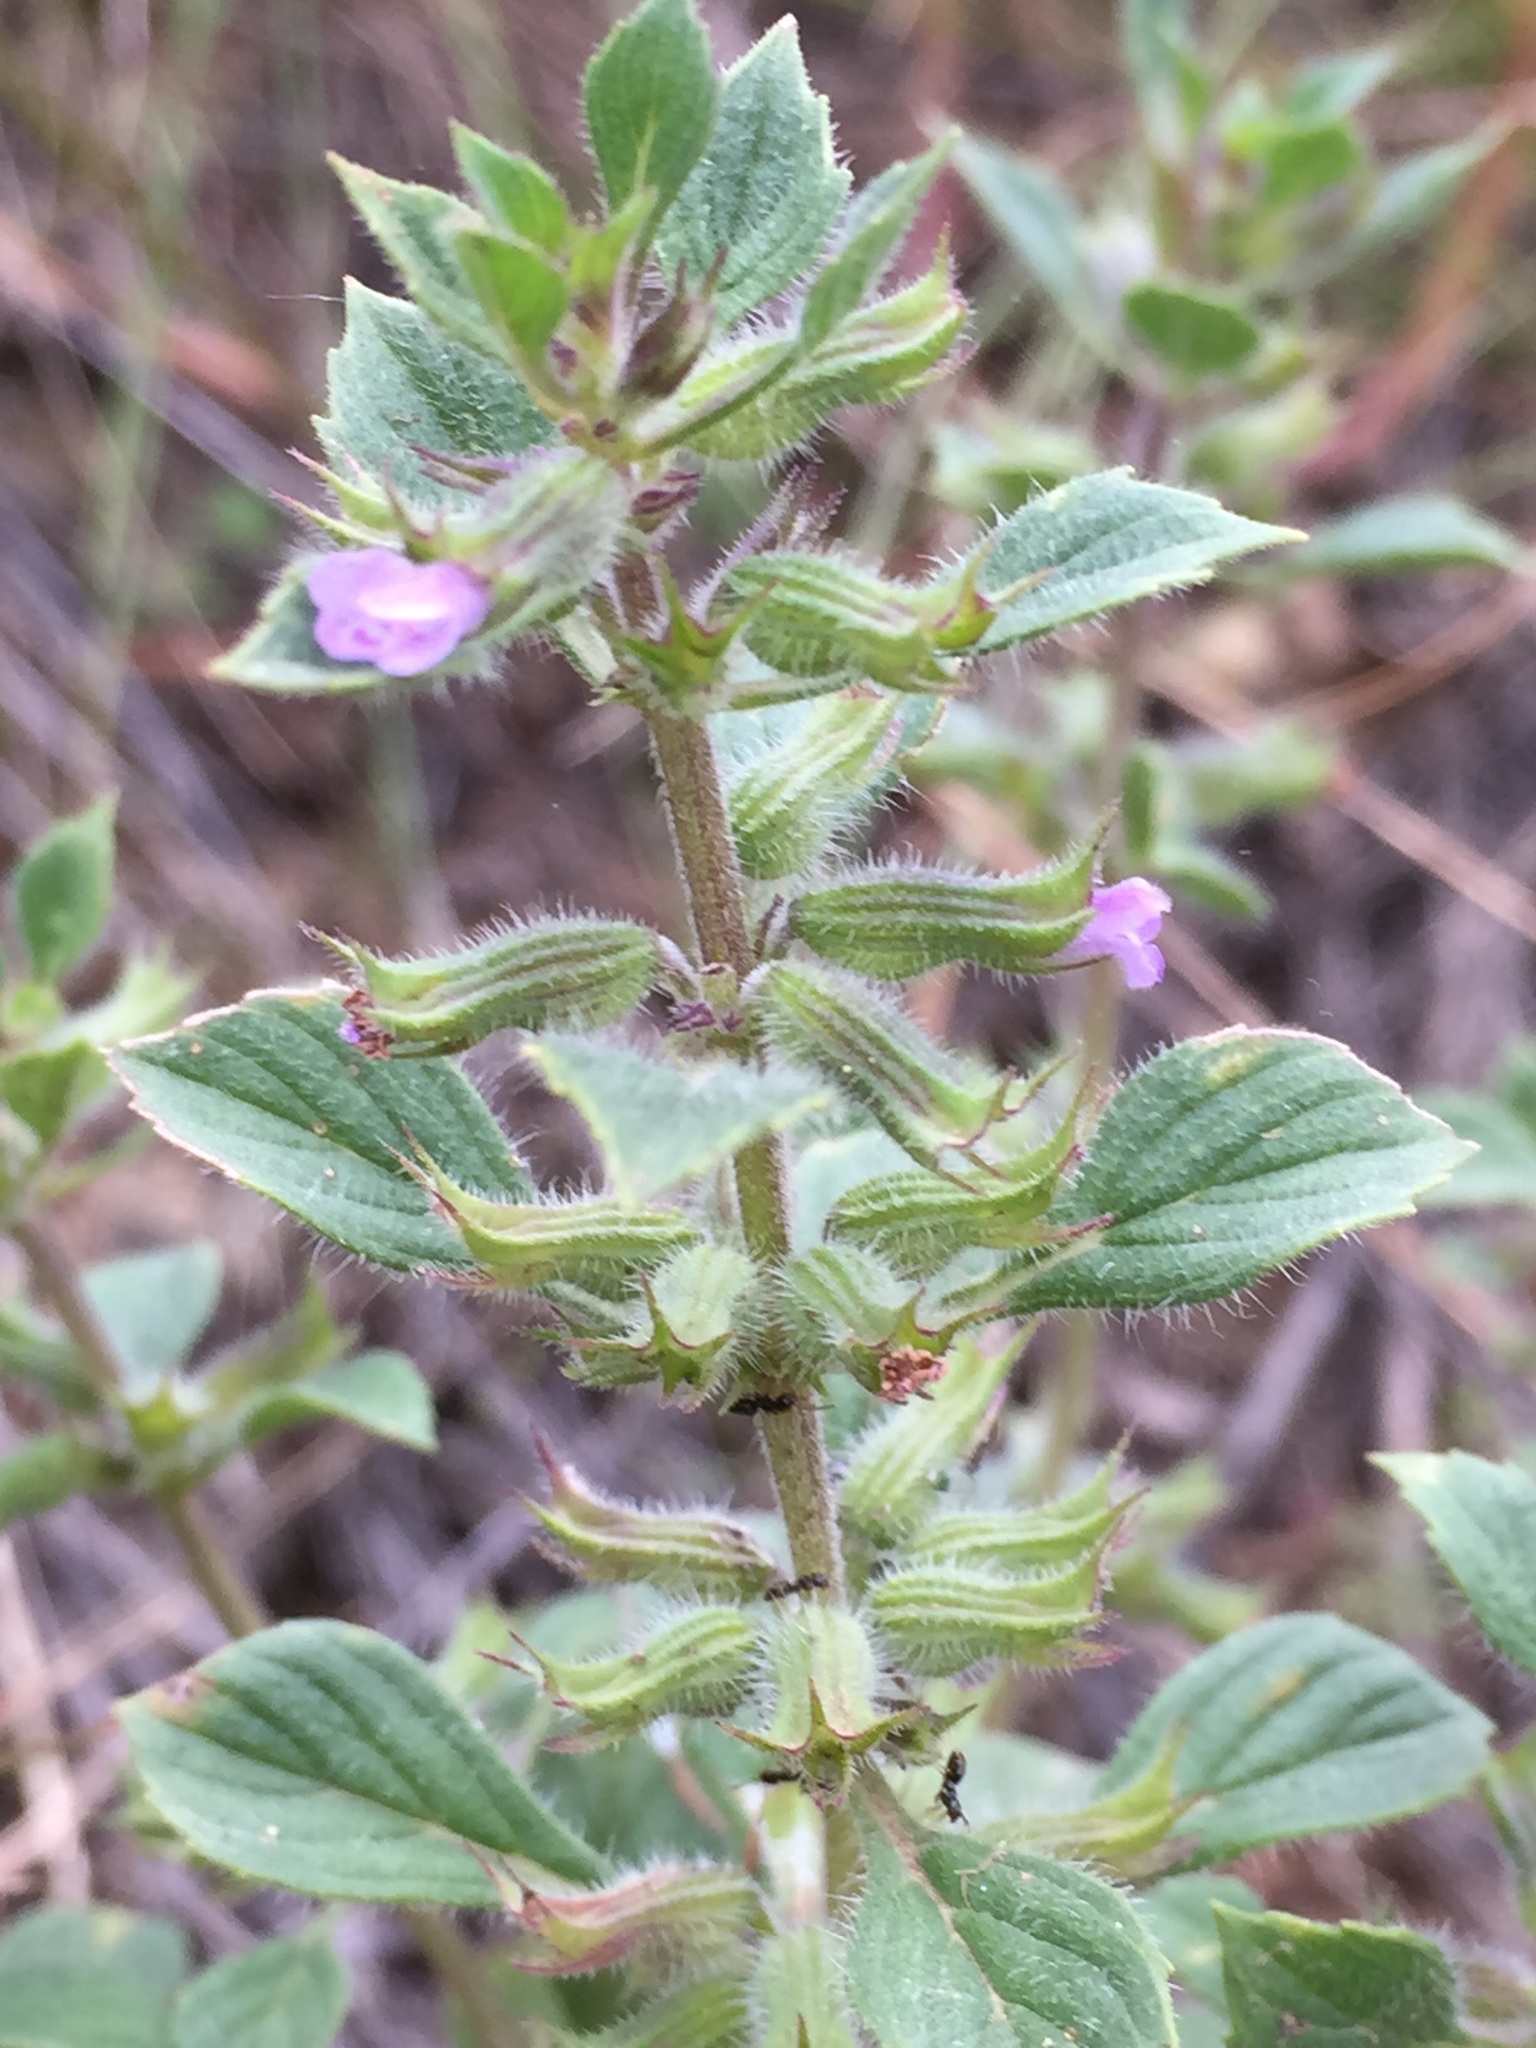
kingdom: Plantae
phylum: Tracheophyta
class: Magnoliopsida
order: Lamiales
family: Lamiaceae
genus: Clinopodium
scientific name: Clinopodium acinos
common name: Basil thyme
